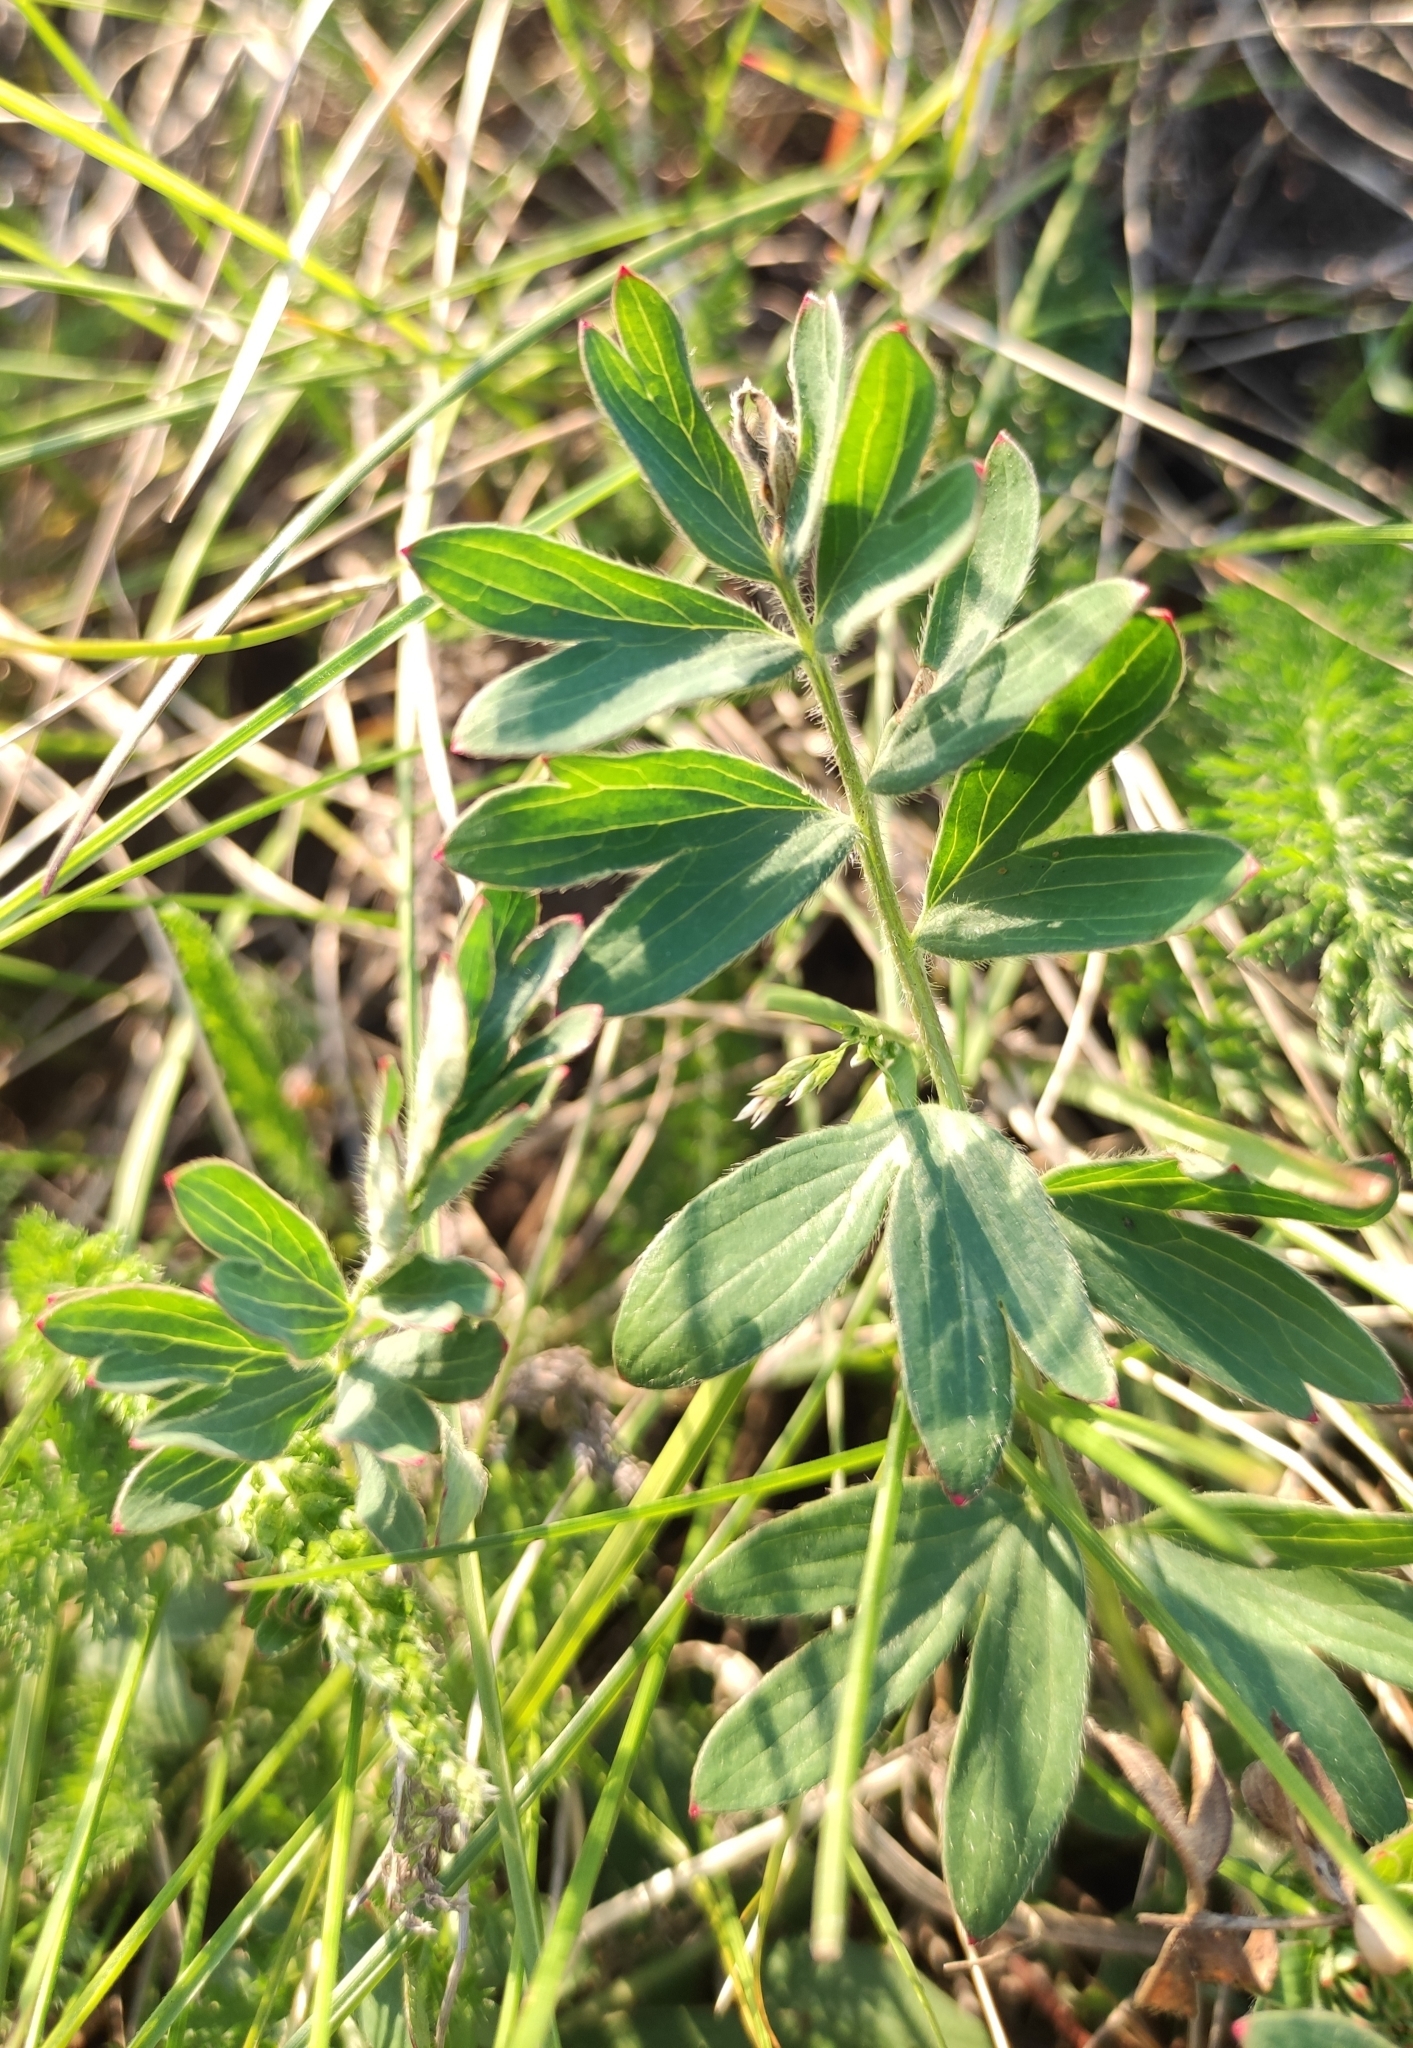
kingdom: Plantae
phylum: Tracheophyta
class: Magnoliopsida
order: Rosales
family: Rosaceae
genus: Sibbaldianthe
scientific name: Sibbaldianthe bifurca
